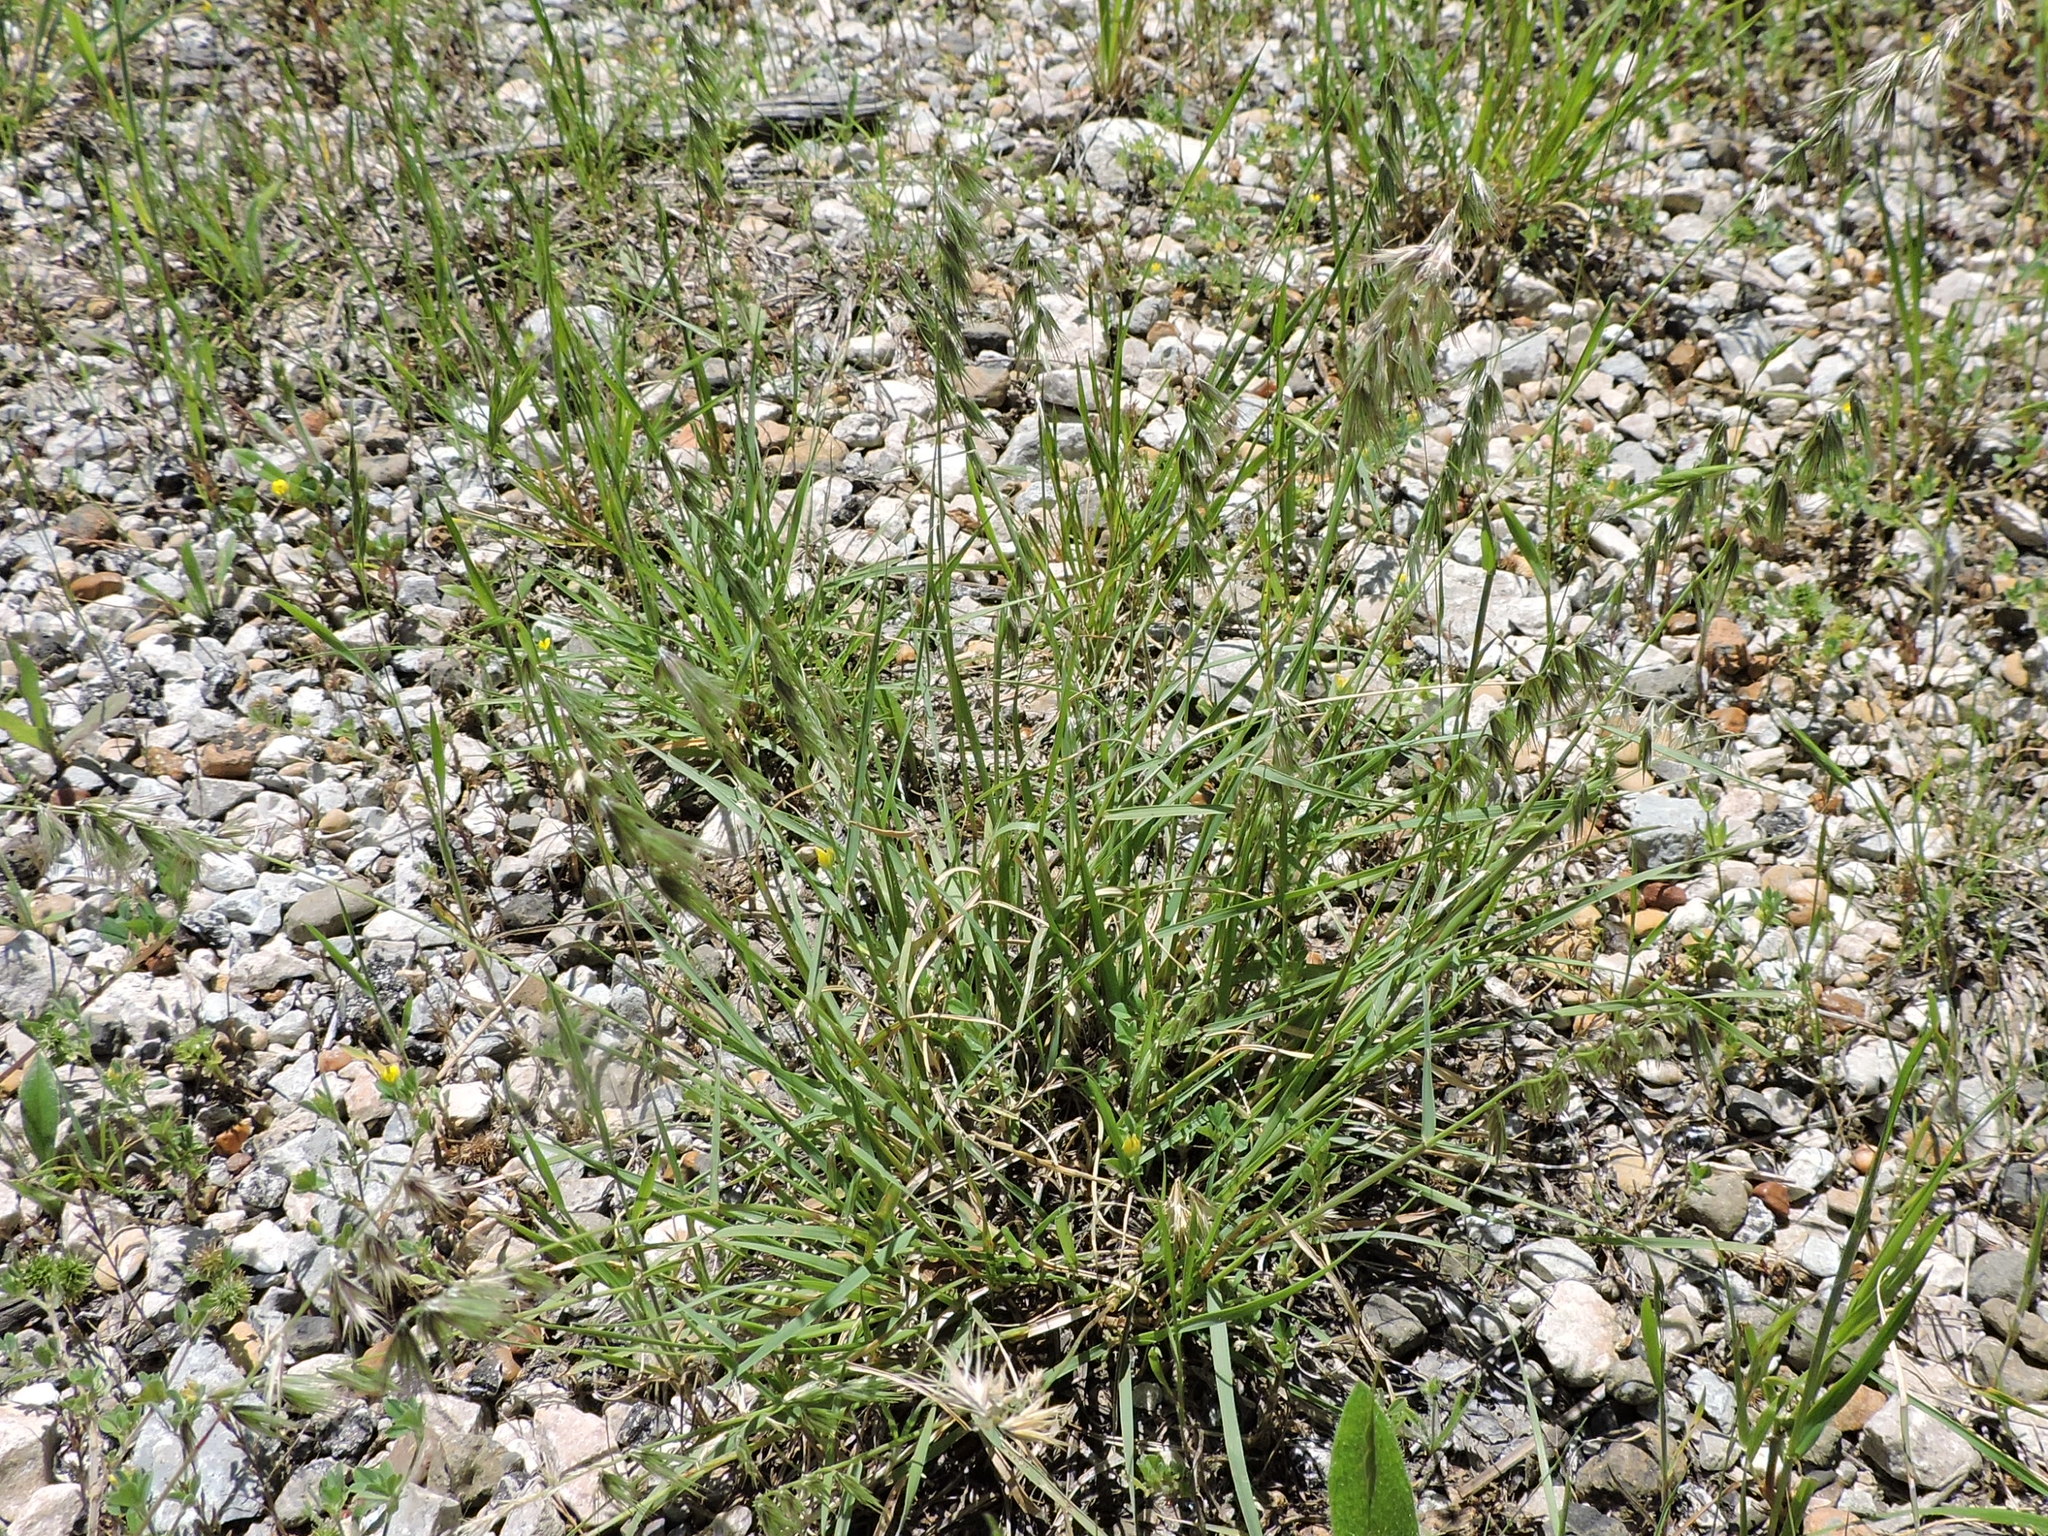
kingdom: Plantae
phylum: Tracheophyta
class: Liliopsida
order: Poales
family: Poaceae
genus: Bouteloua
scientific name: Bouteloua rigidiseta
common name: Texas grama
